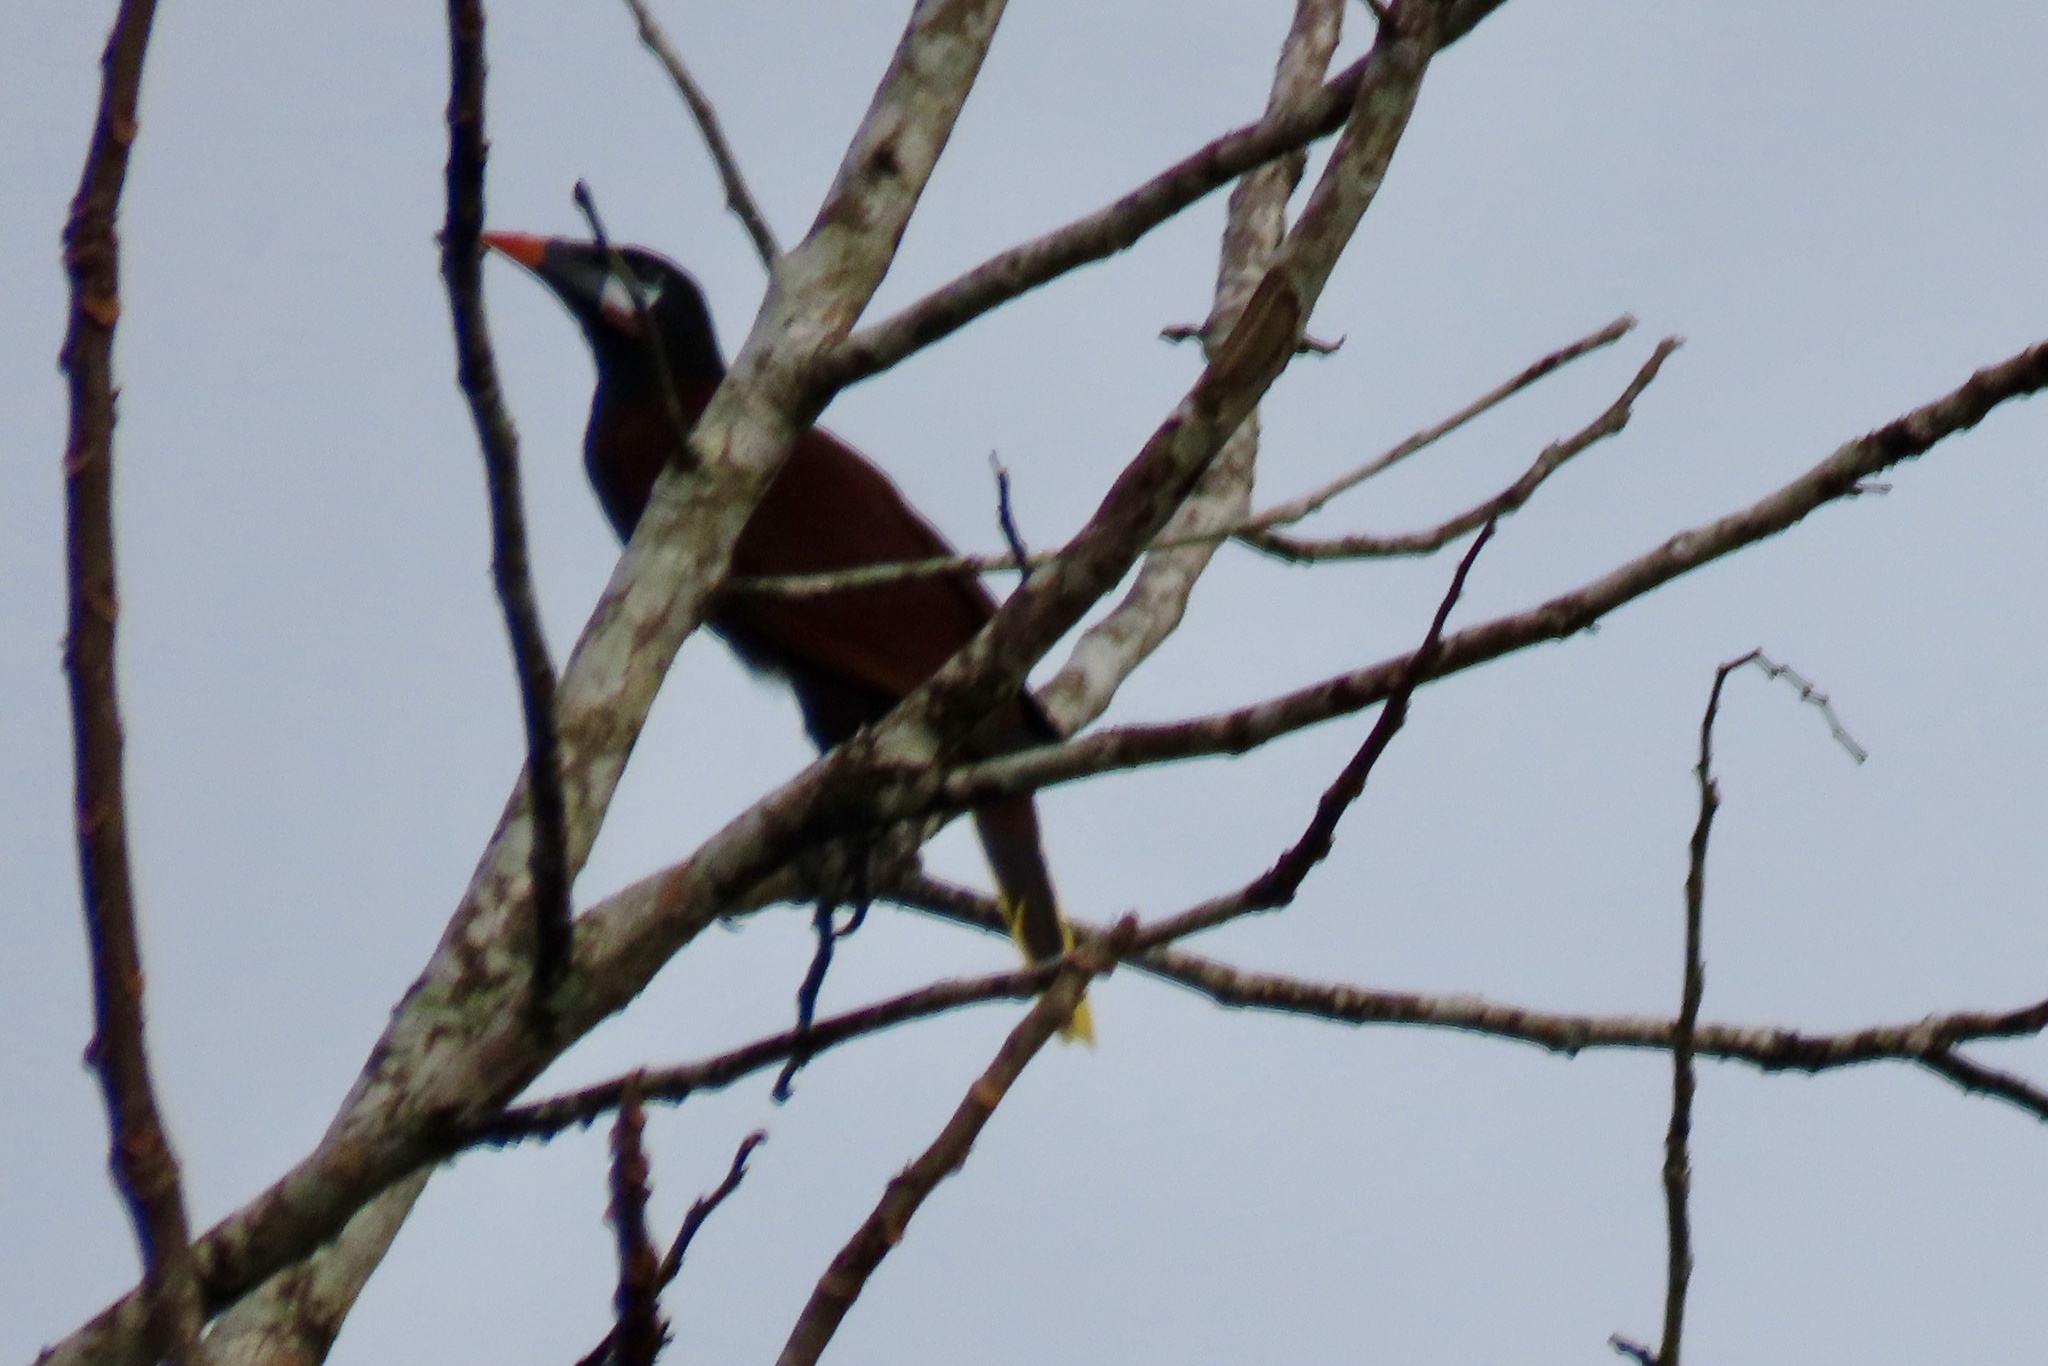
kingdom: Animalia
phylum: Chordata
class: Aves
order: Passeriformes
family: Icteridae
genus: Psarocolius
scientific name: Psarocolius montezuma
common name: Montezuma oropendola
